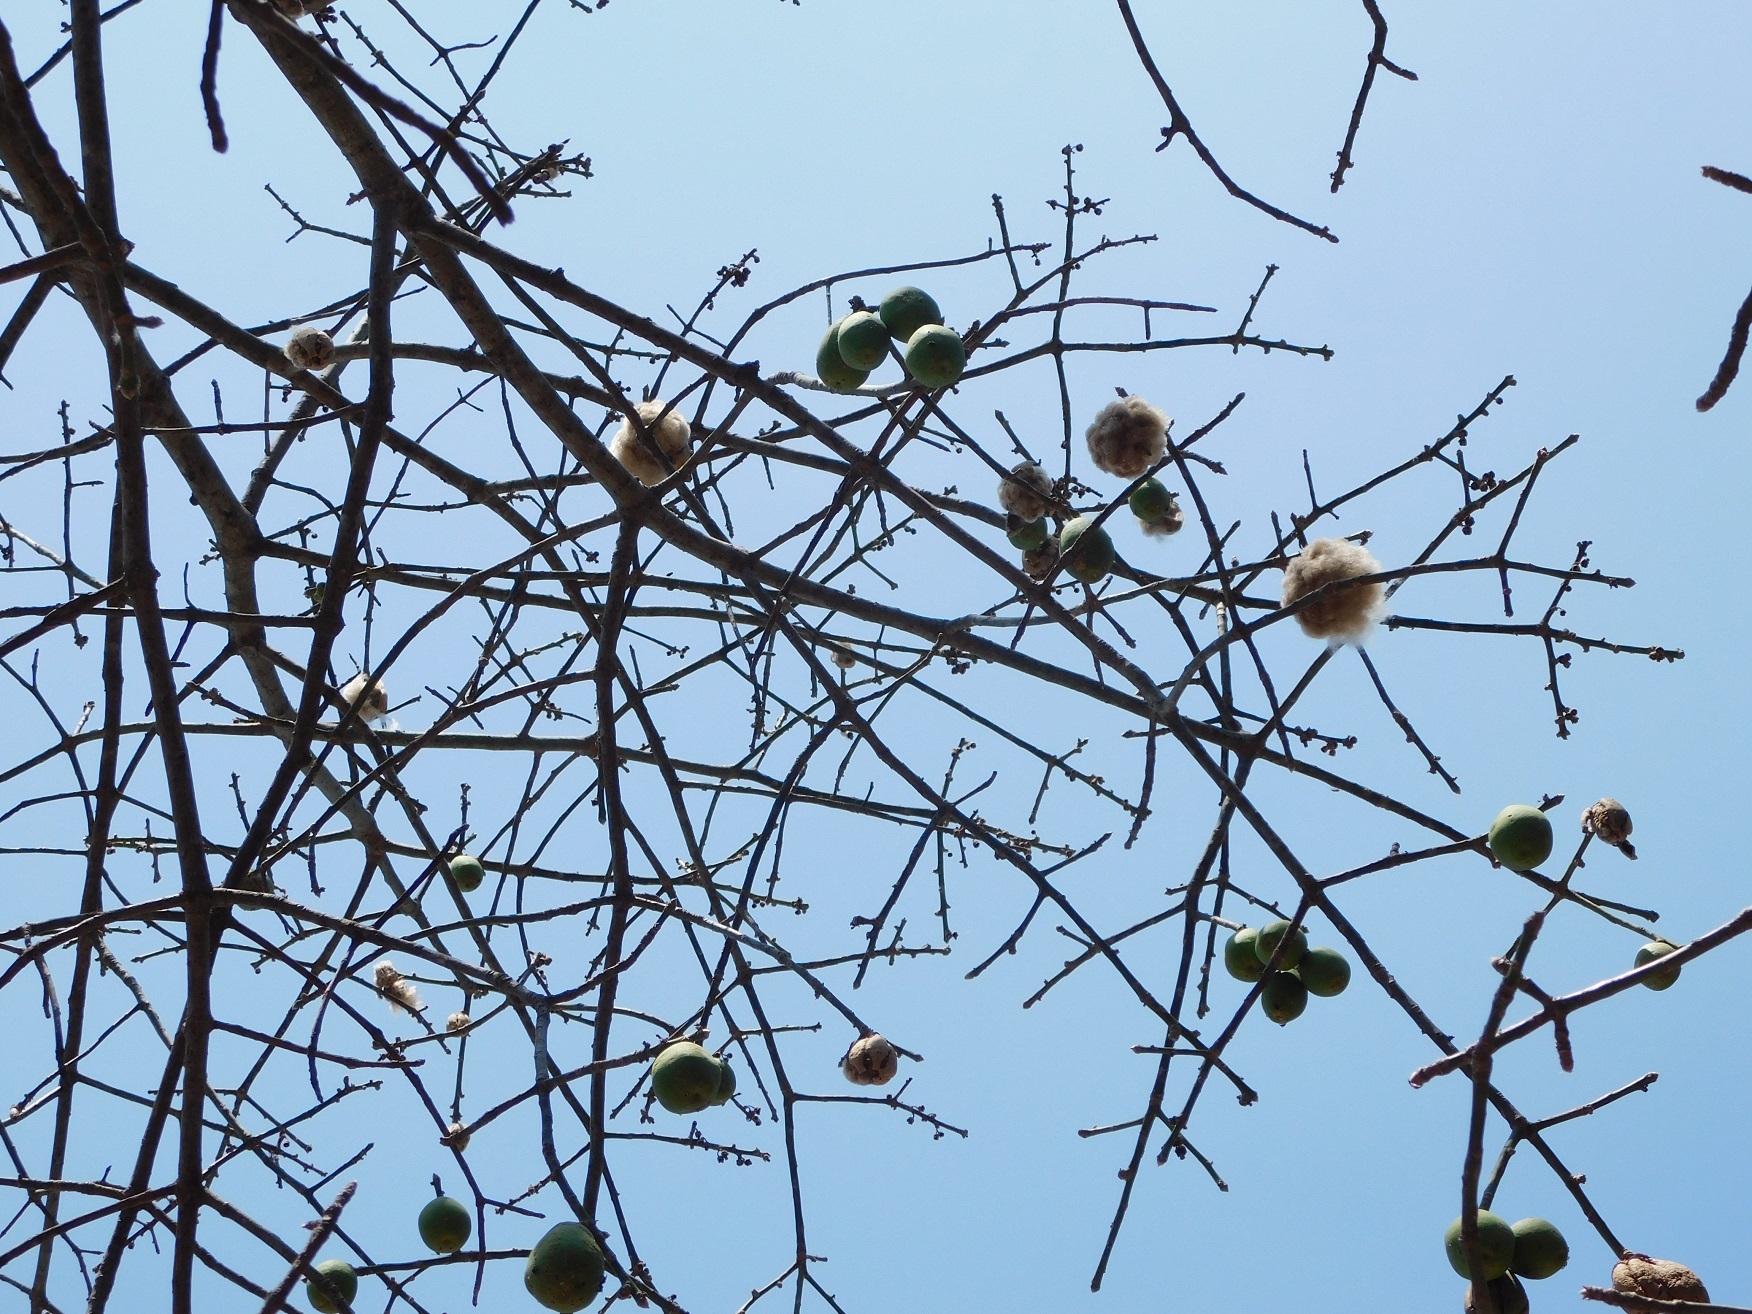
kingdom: Plantae
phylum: Tracheophyta
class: Magnoliopsida
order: Malvales
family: Malvaceae
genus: Ceiba
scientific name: Ceiba aesculifolia
